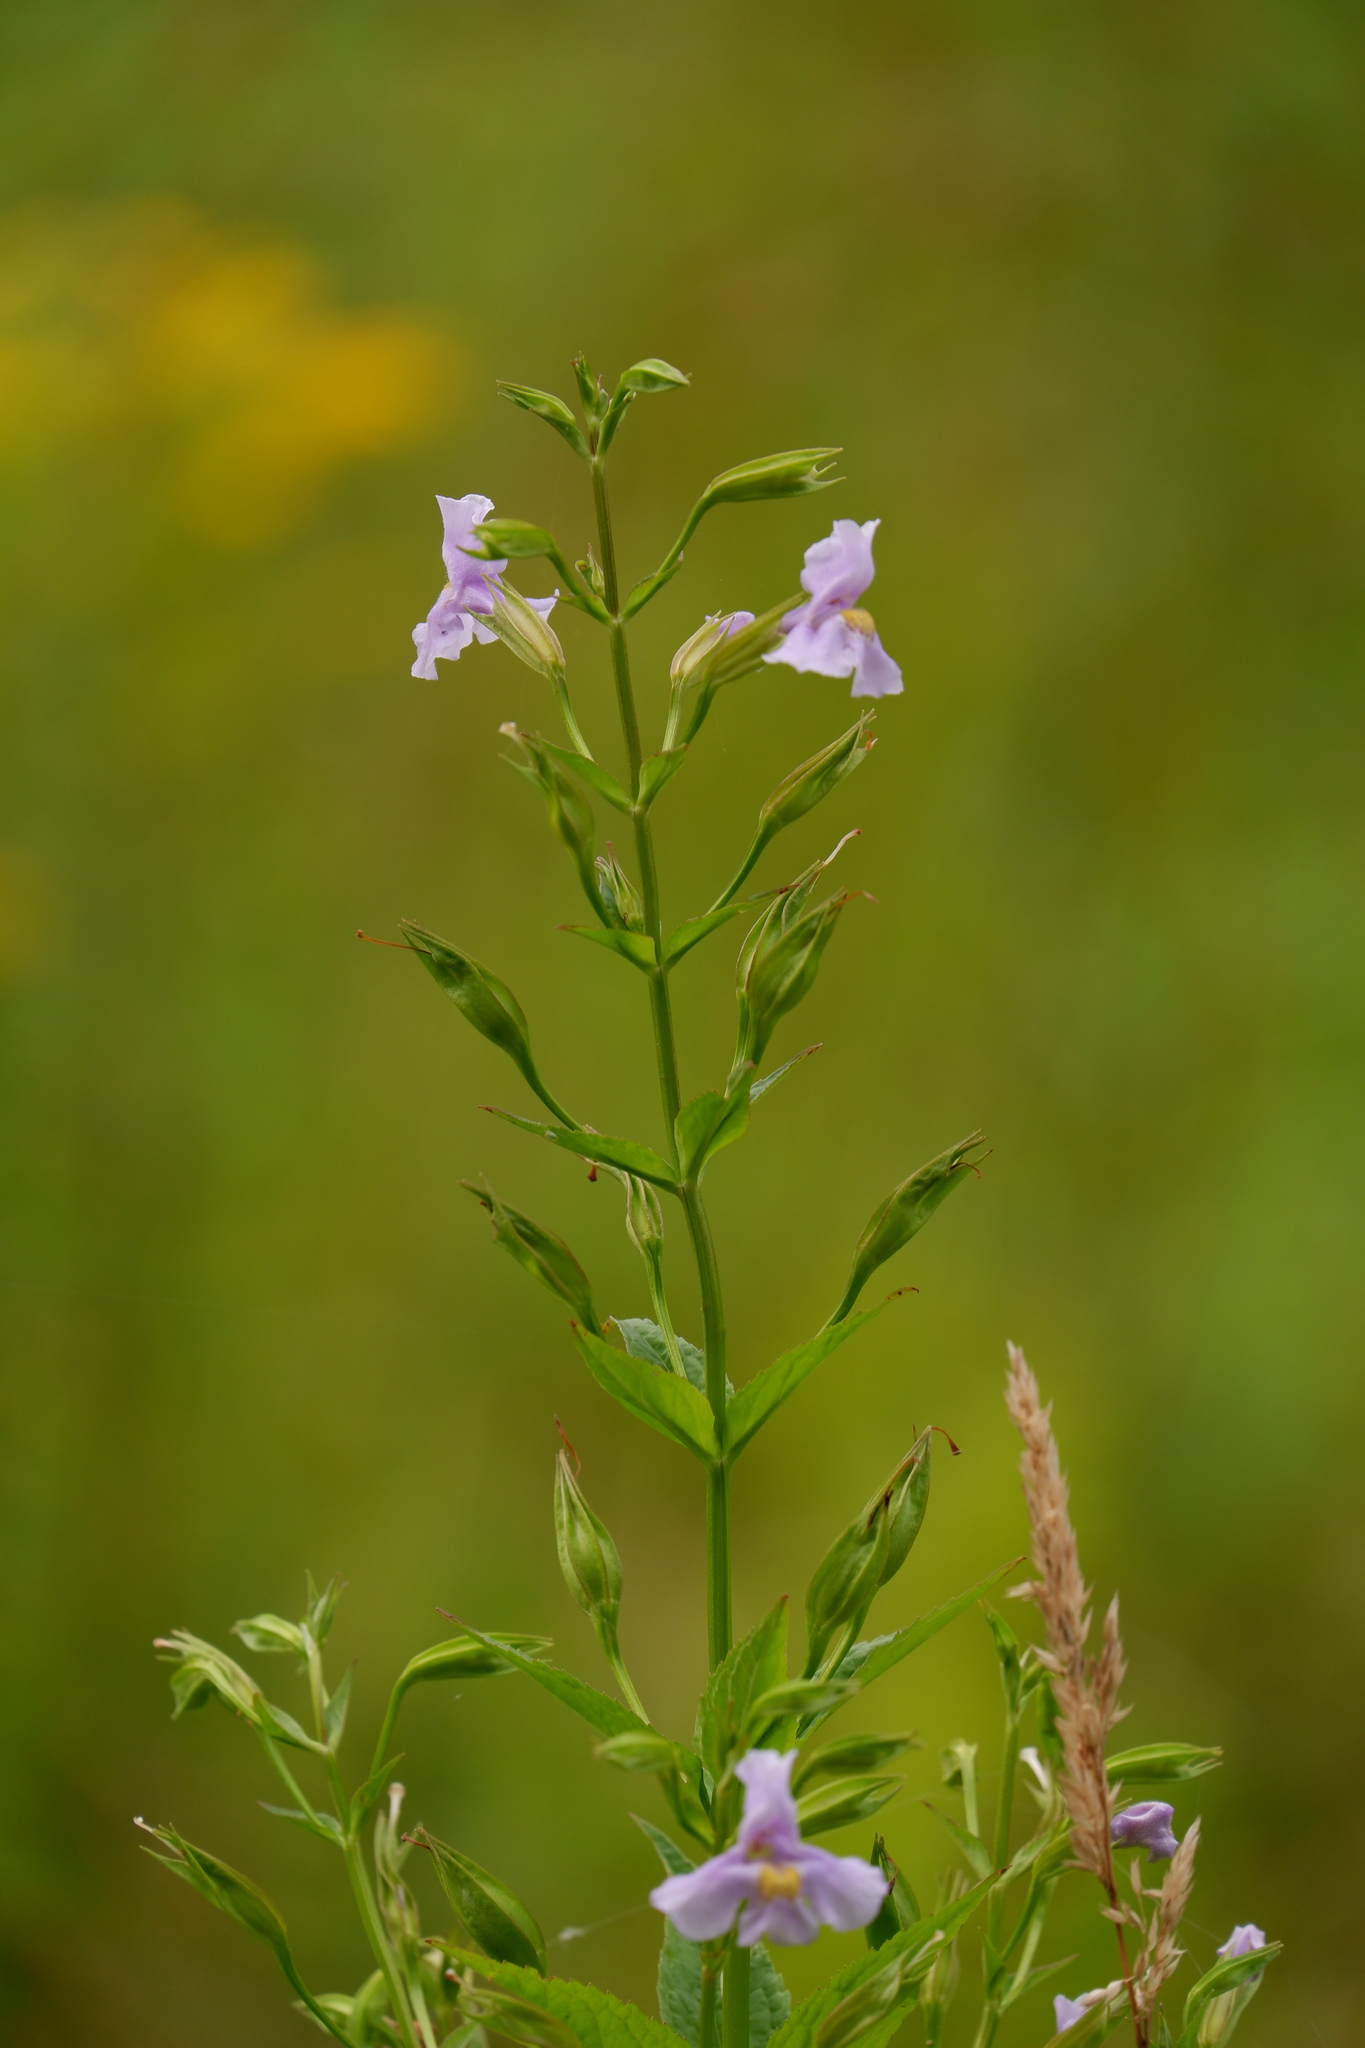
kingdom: Plantae
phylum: Tracheophyta
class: Magnoliopsida
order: Lamiales
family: Phrymaceae
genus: Mimulus
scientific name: Mimulus ringens
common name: Allegheny monkeyflower
